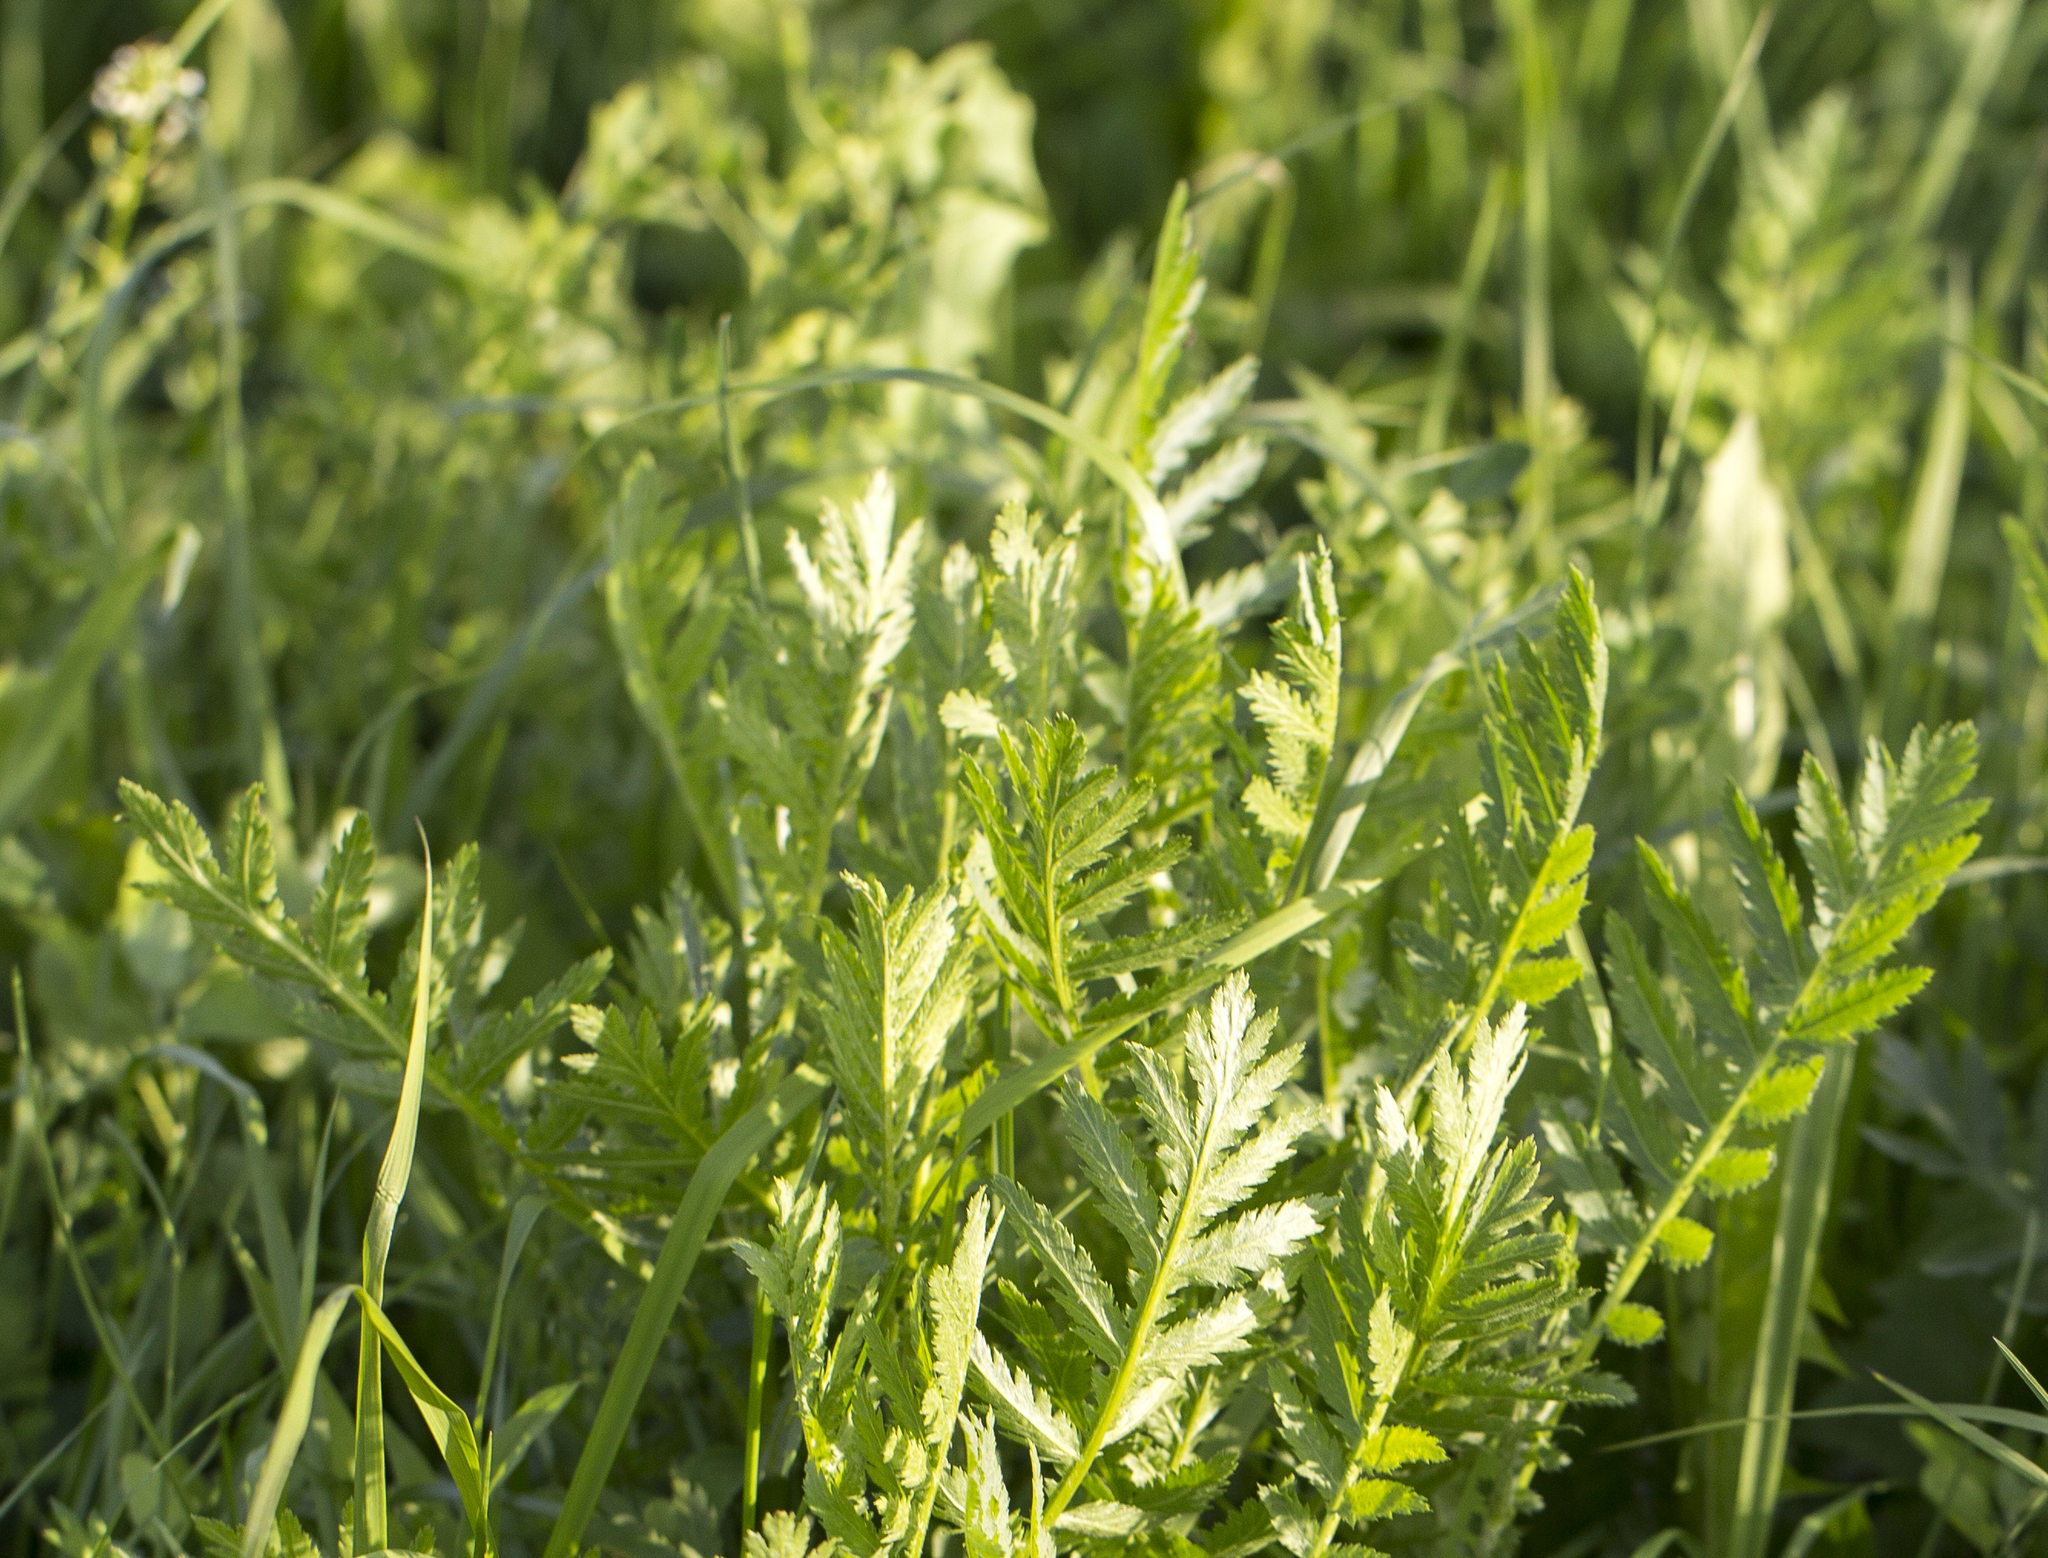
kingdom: Plantae
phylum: Tracheophyta
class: Magnoliopsida
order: Asterales
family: Asteraceae
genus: Tanacetum
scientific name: Tanacetum vulgare
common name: Common tansy
